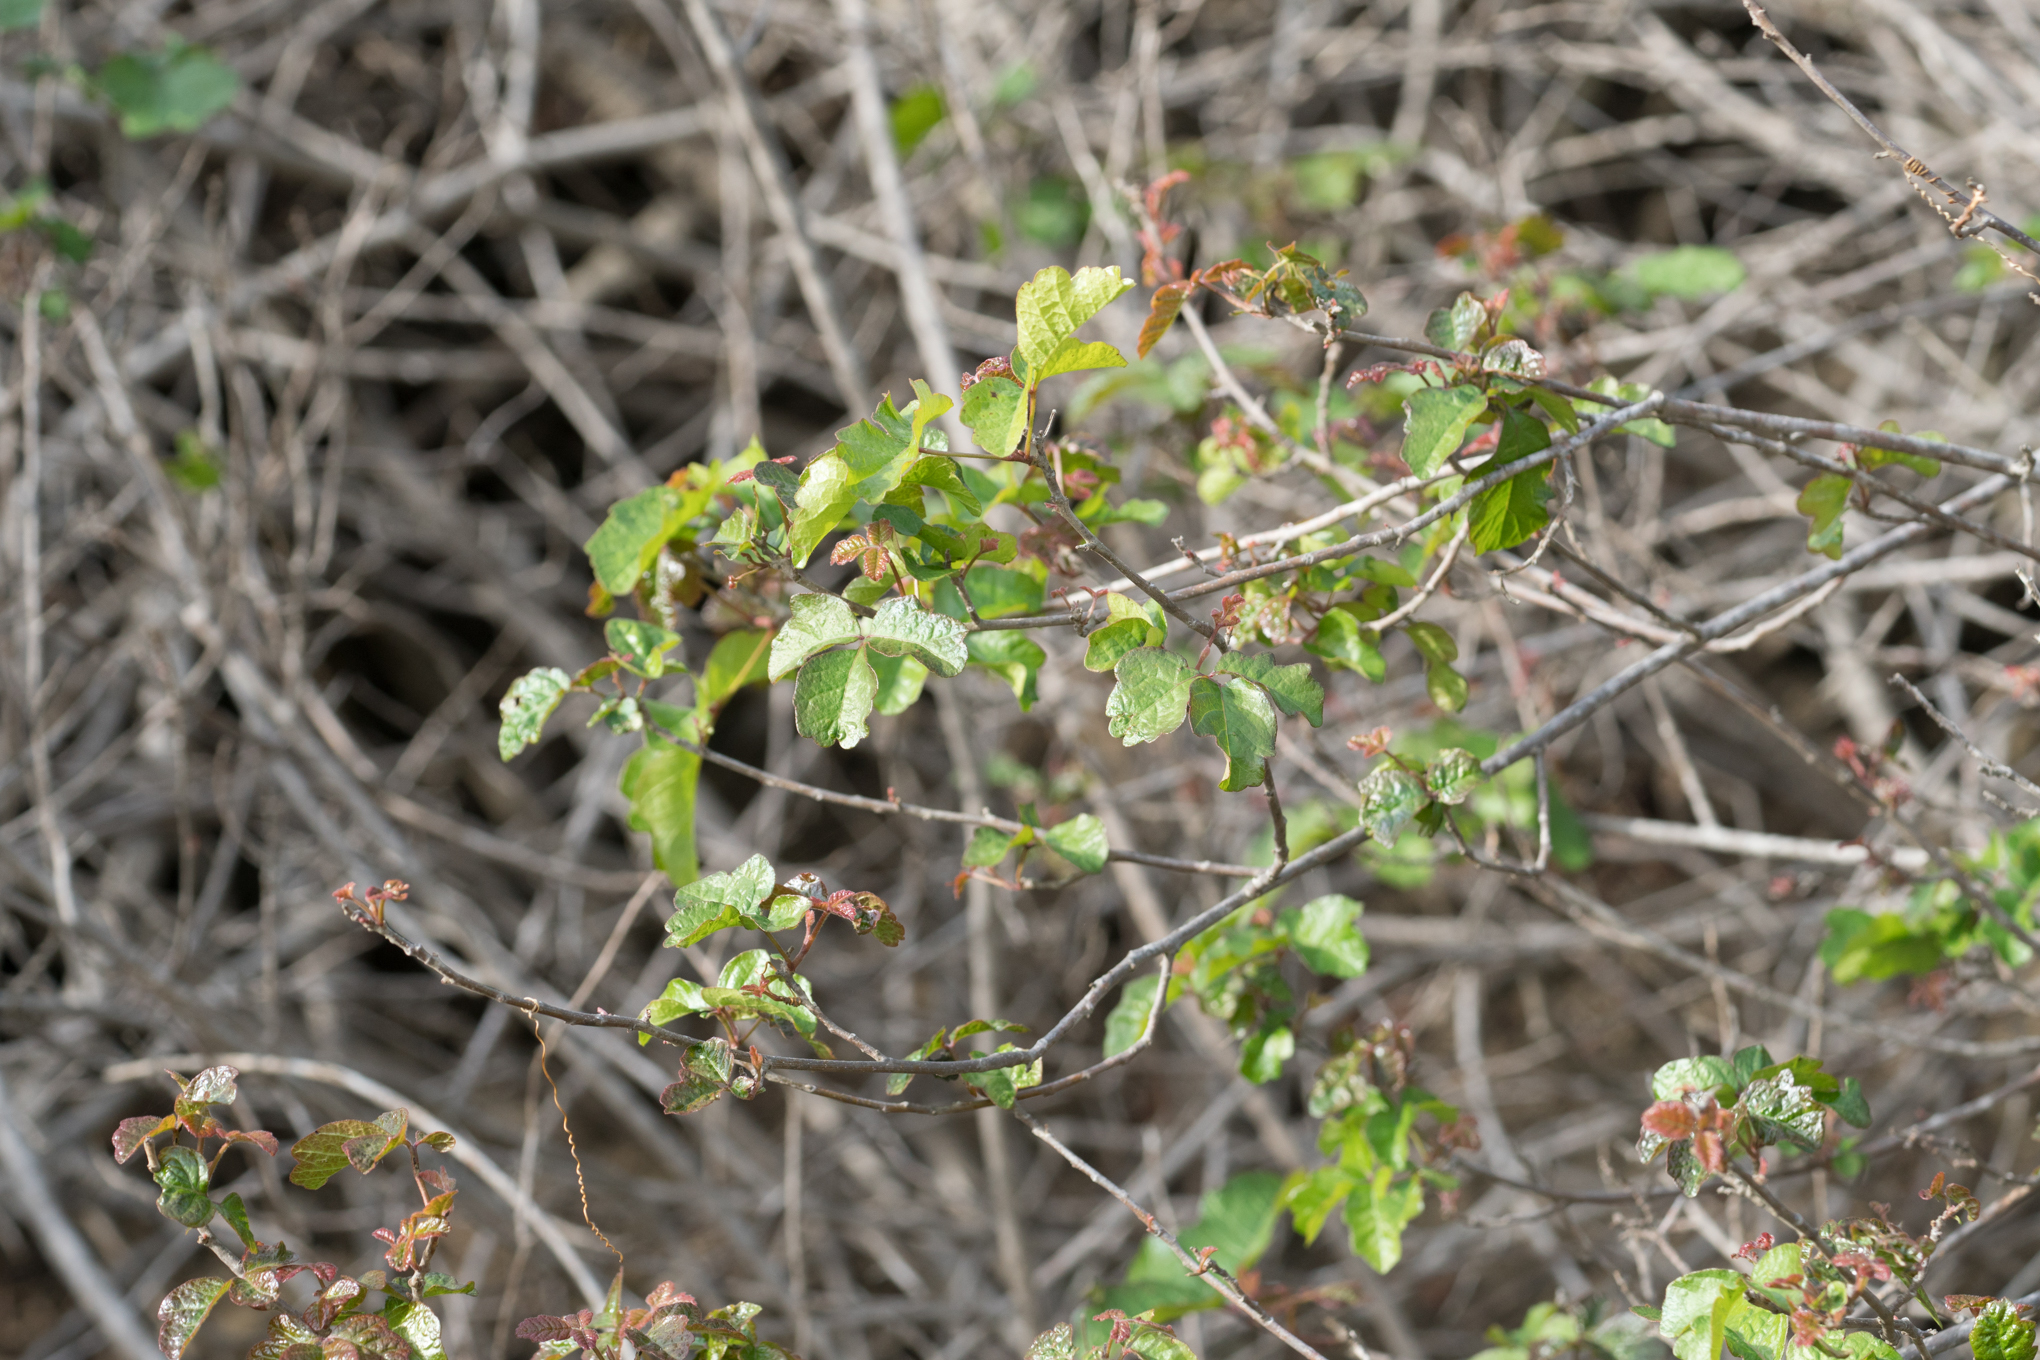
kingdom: Plantae
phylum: Tracheophyta
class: Magnoliopsida
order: Sapindales
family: Anacardiaceae
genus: Toxicodendron
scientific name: Toxicodendron diversilobum
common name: Pacific poison-oak
